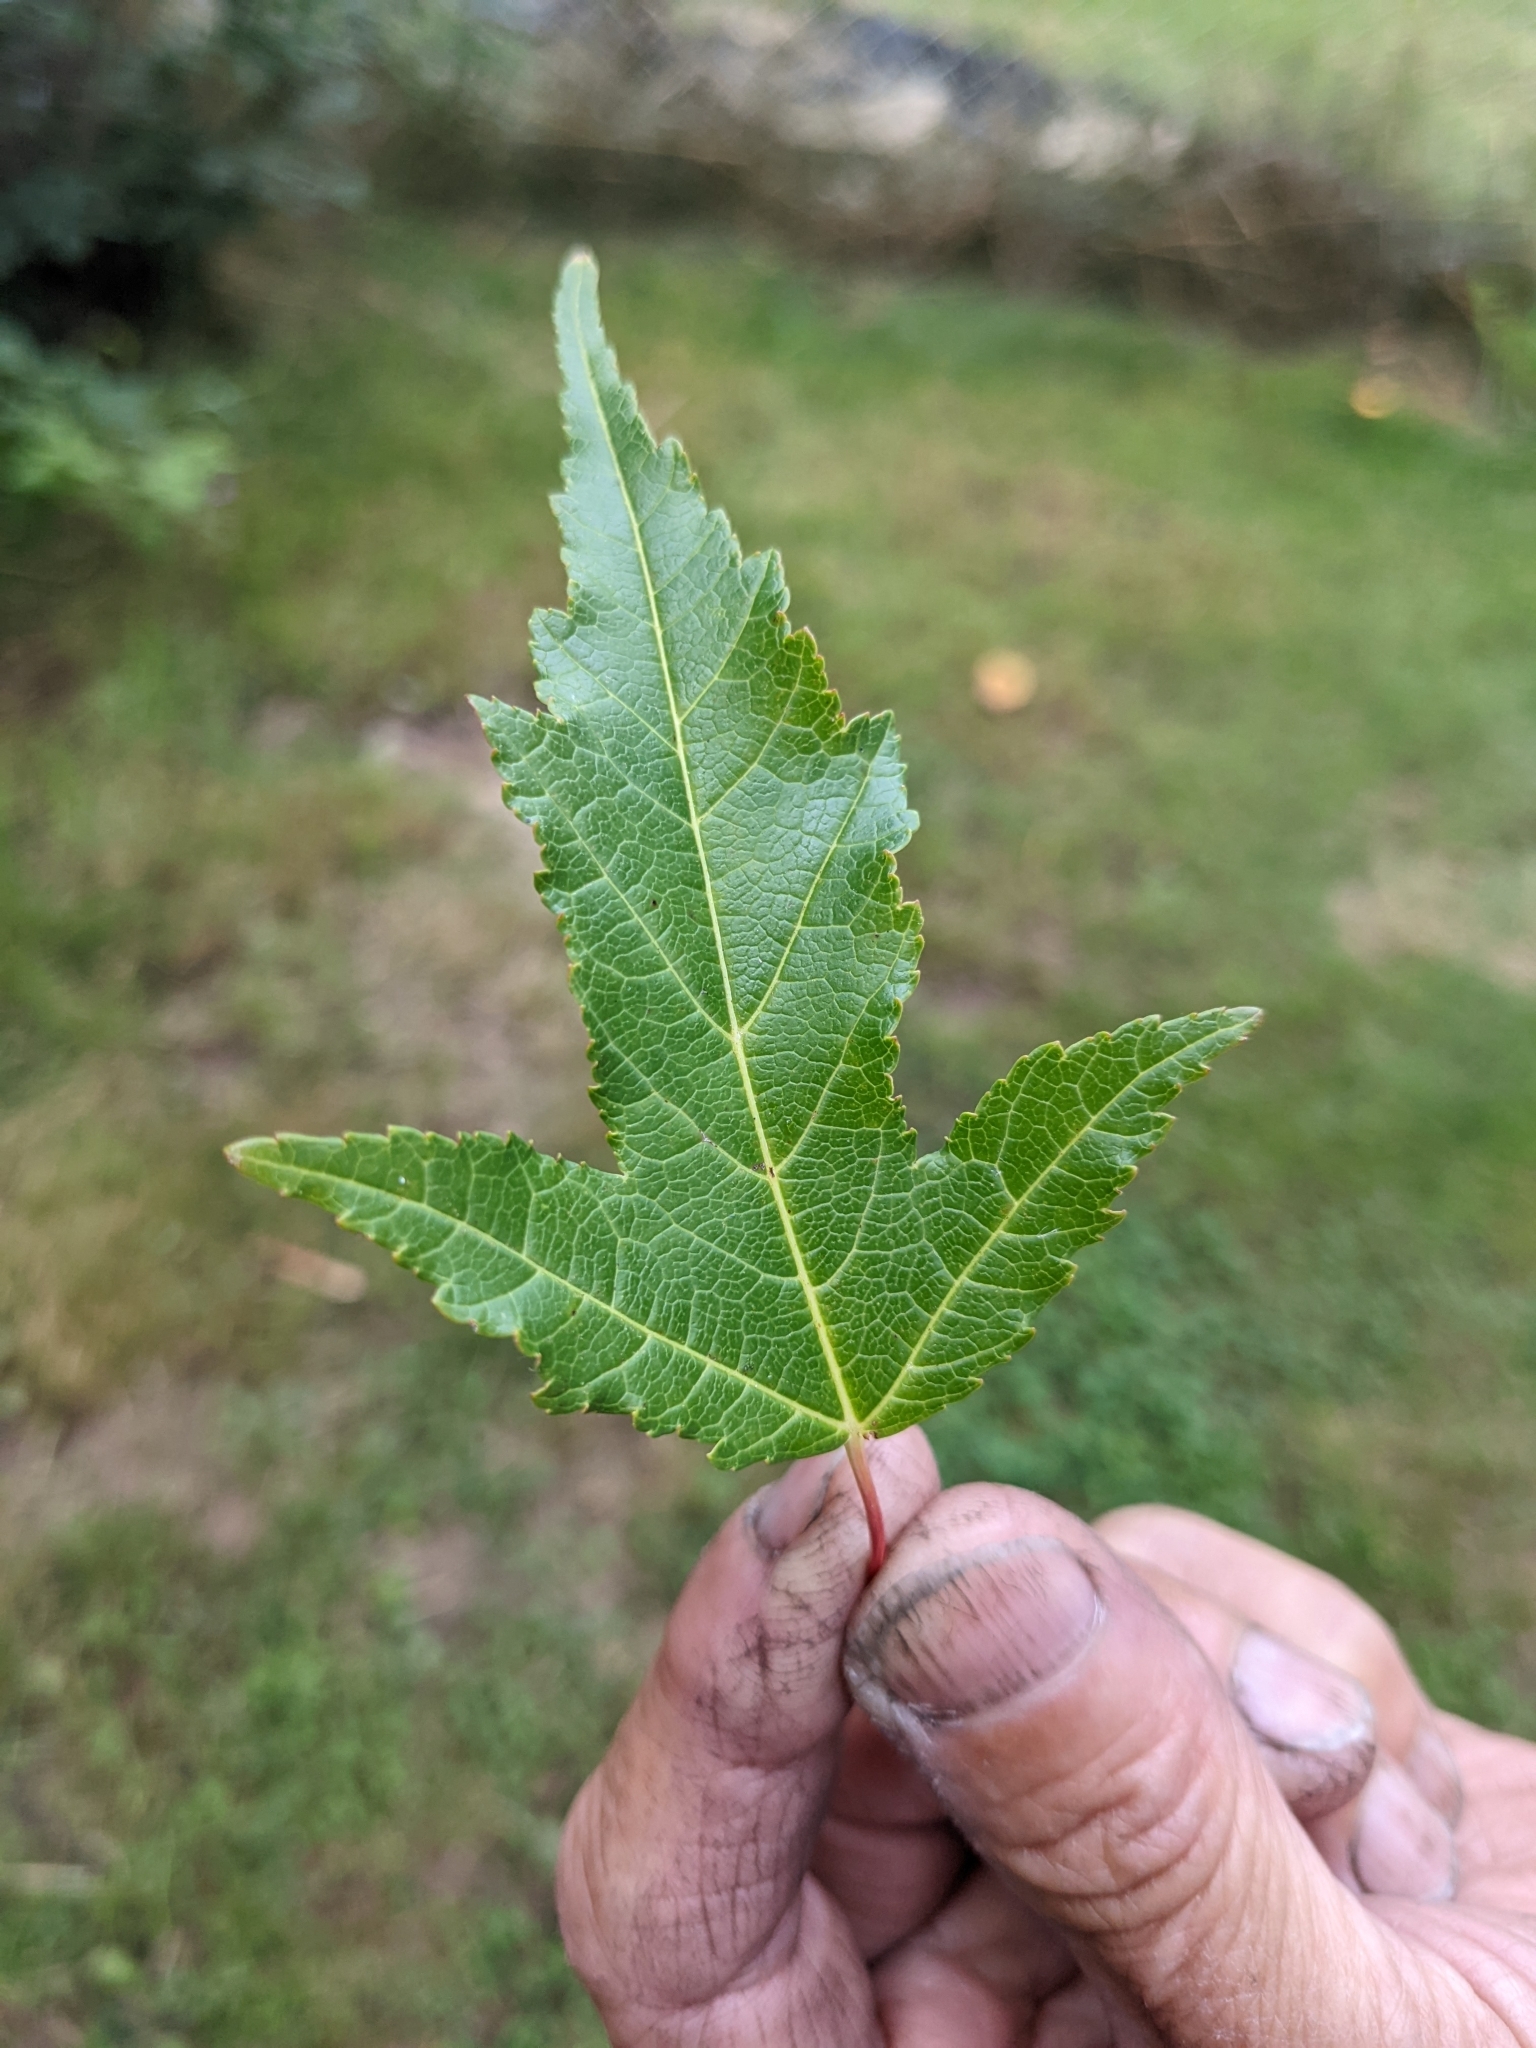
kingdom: Plantae
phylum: Tracheophyta
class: Magnoliopsida
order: Sapindales
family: Sapindaceae
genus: Acer
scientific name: Acer tataricum
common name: Tartar maple
